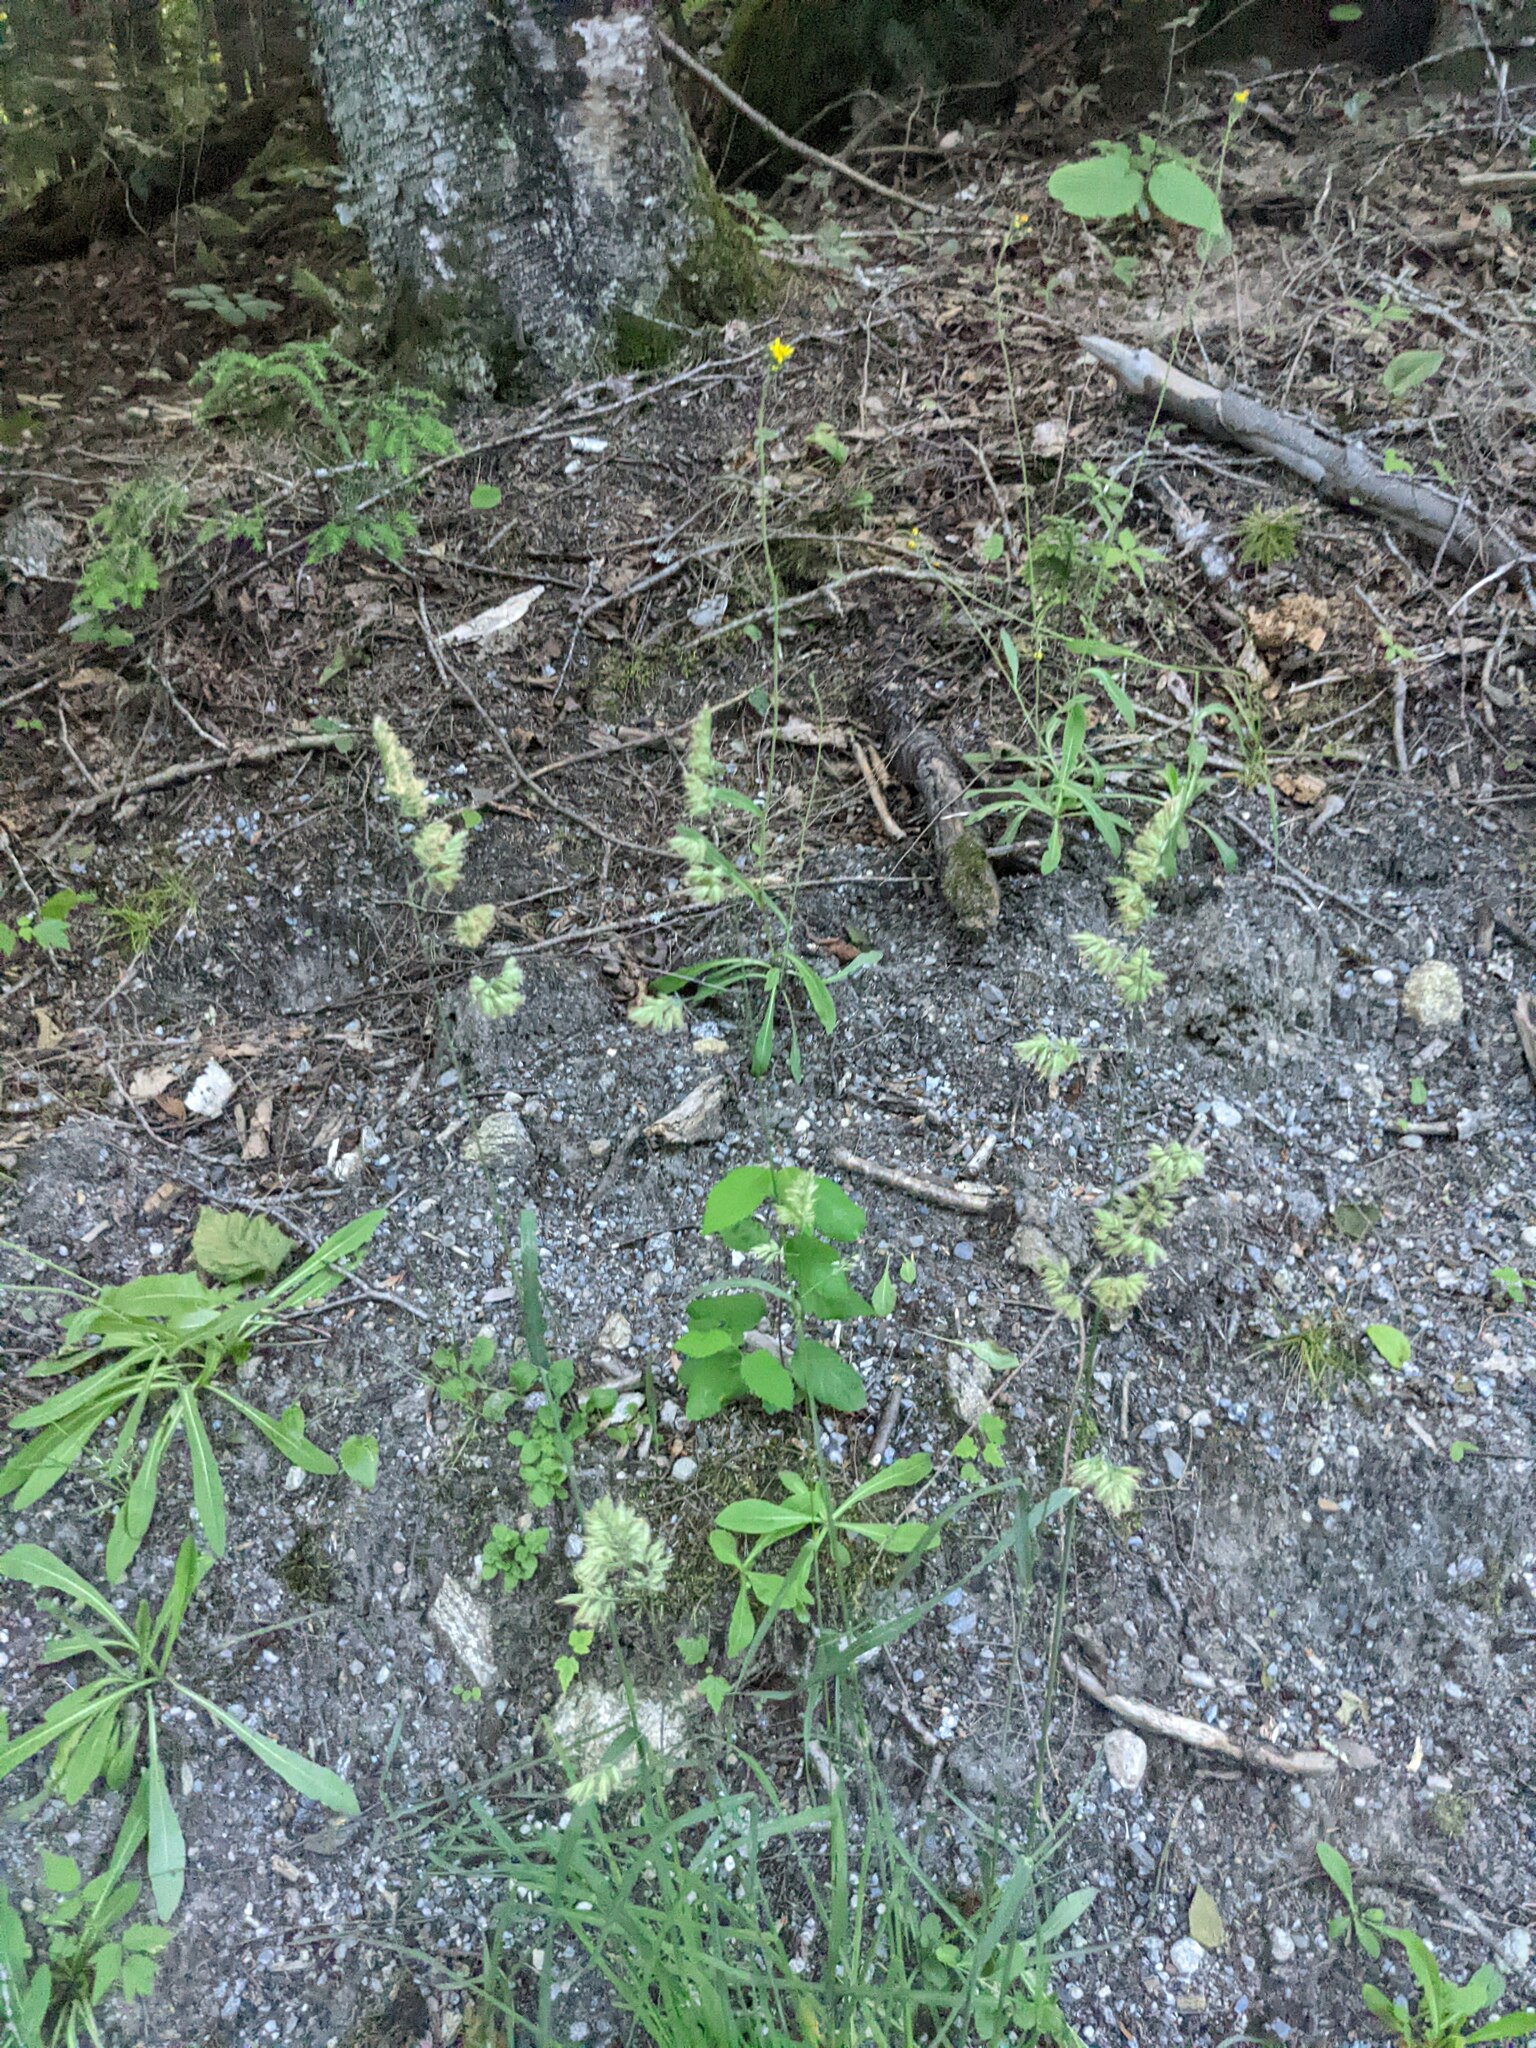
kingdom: Plantae
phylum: Tracheophyta
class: Liliopsida
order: Poales
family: Poaceae
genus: Dactylis
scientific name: Dactylis glomerata
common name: Orchardgrass
